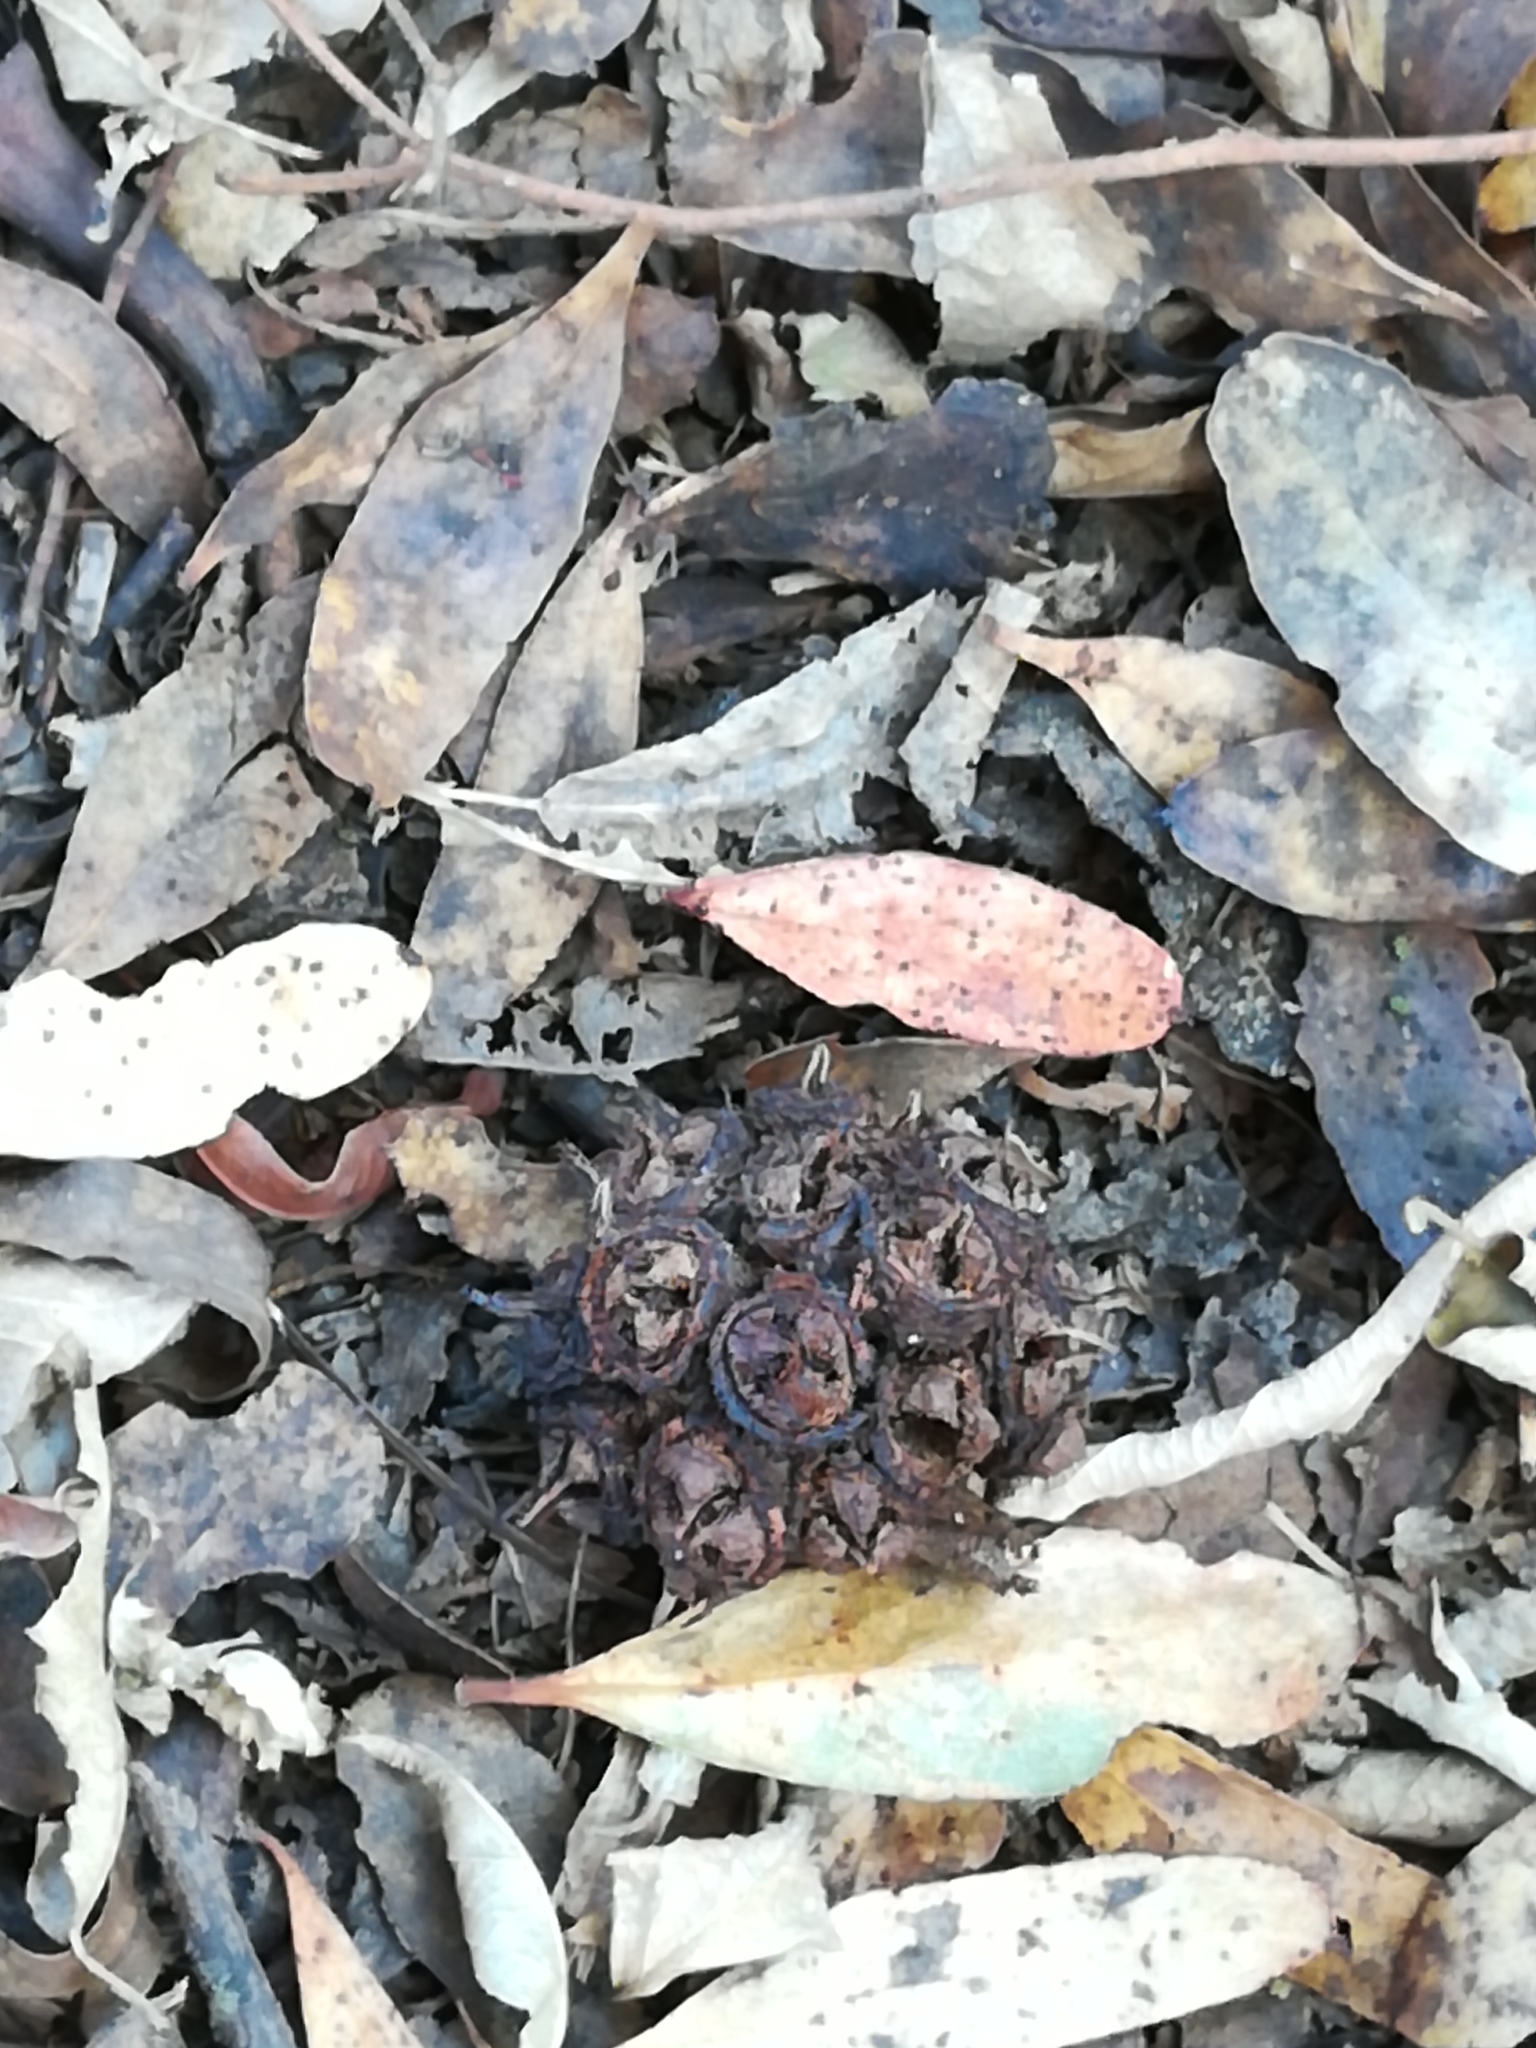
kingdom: Plantae
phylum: Tracheophyta
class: Magnoliopsida
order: Myrtales
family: Myrtaceae
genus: Eucalyptus
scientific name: Eucalyptus conferruminata
